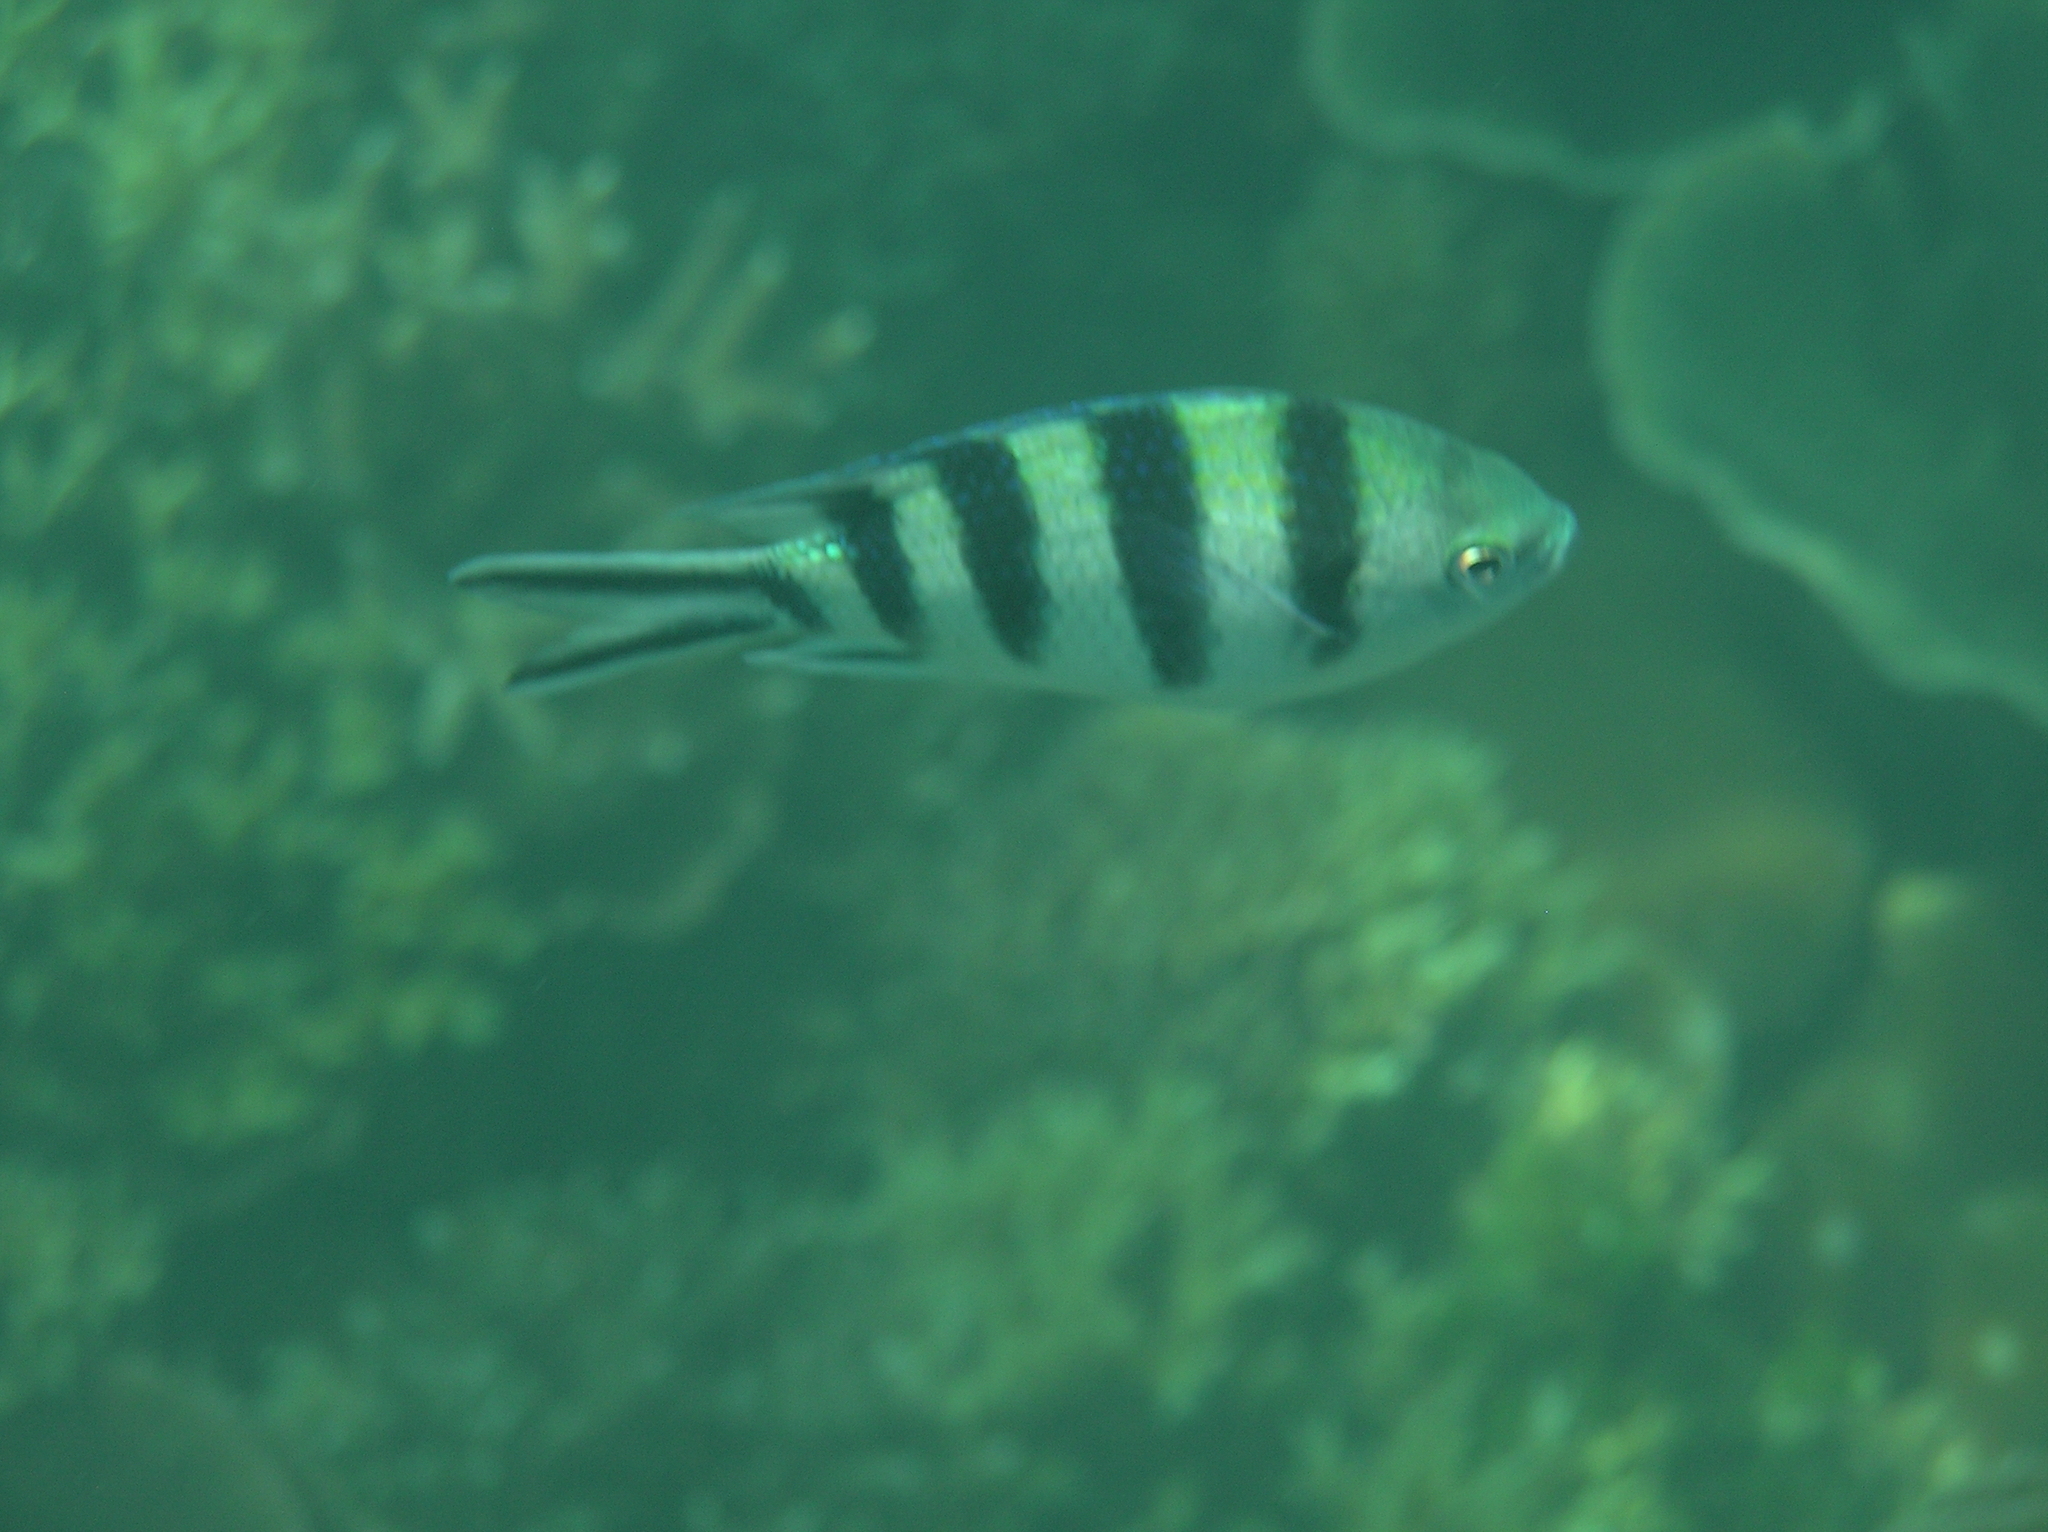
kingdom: Animalia
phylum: Chordata
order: Perciformes
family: Pomacentridae
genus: Abudefduf
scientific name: Abudefduf sexfasciatus
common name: Scissortail sergeant
